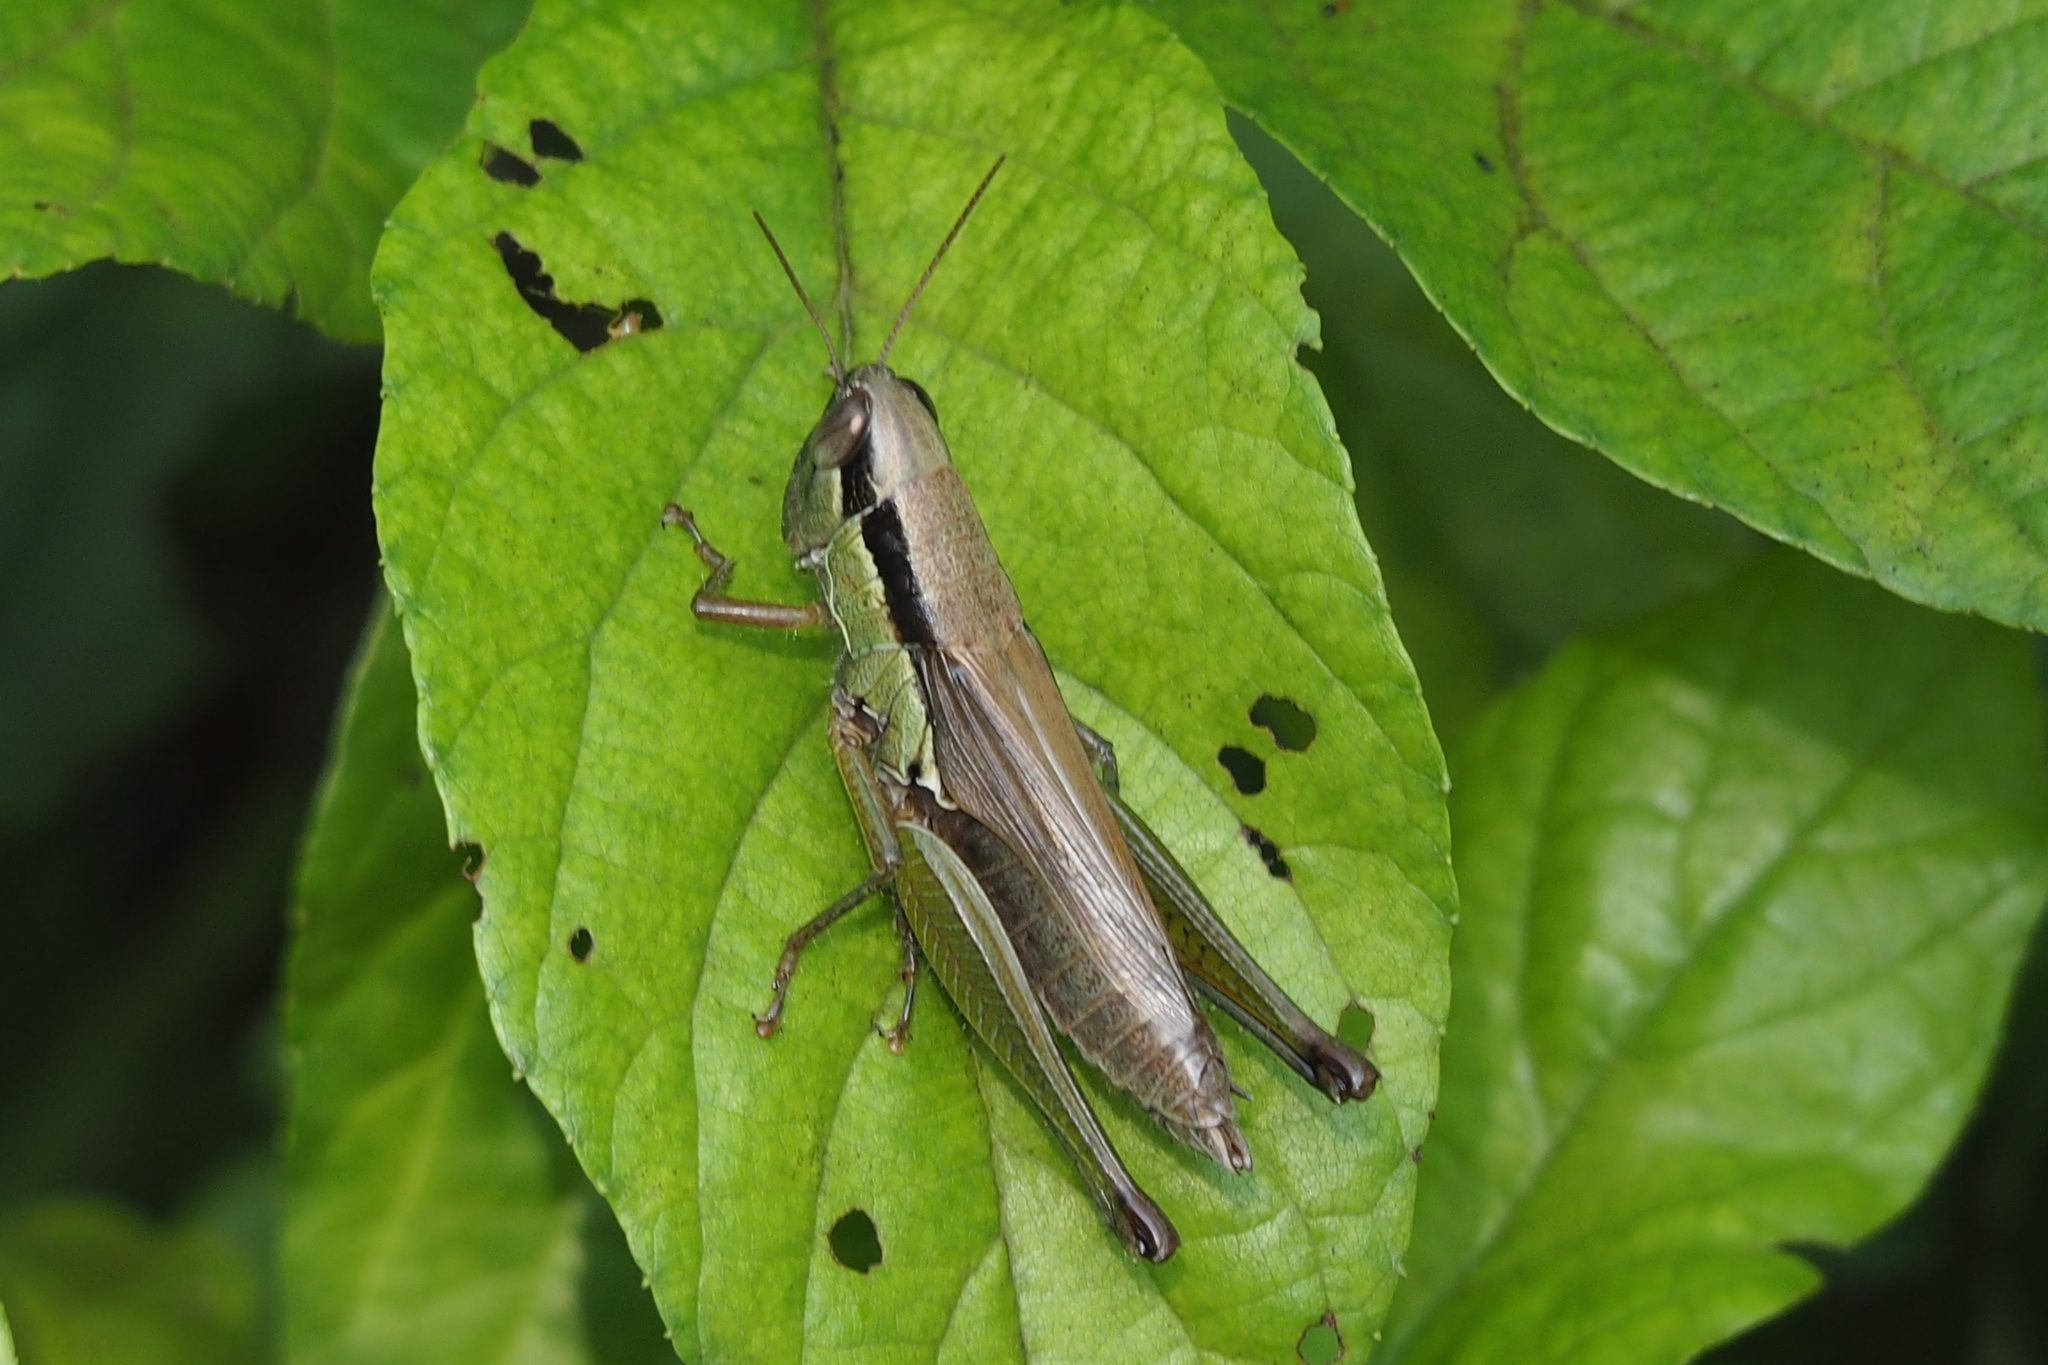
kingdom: Animalia
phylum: Arthropoda
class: Insecta
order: Orthoptera
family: Acrididae
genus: Oxya
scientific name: Oxya yezoensis
